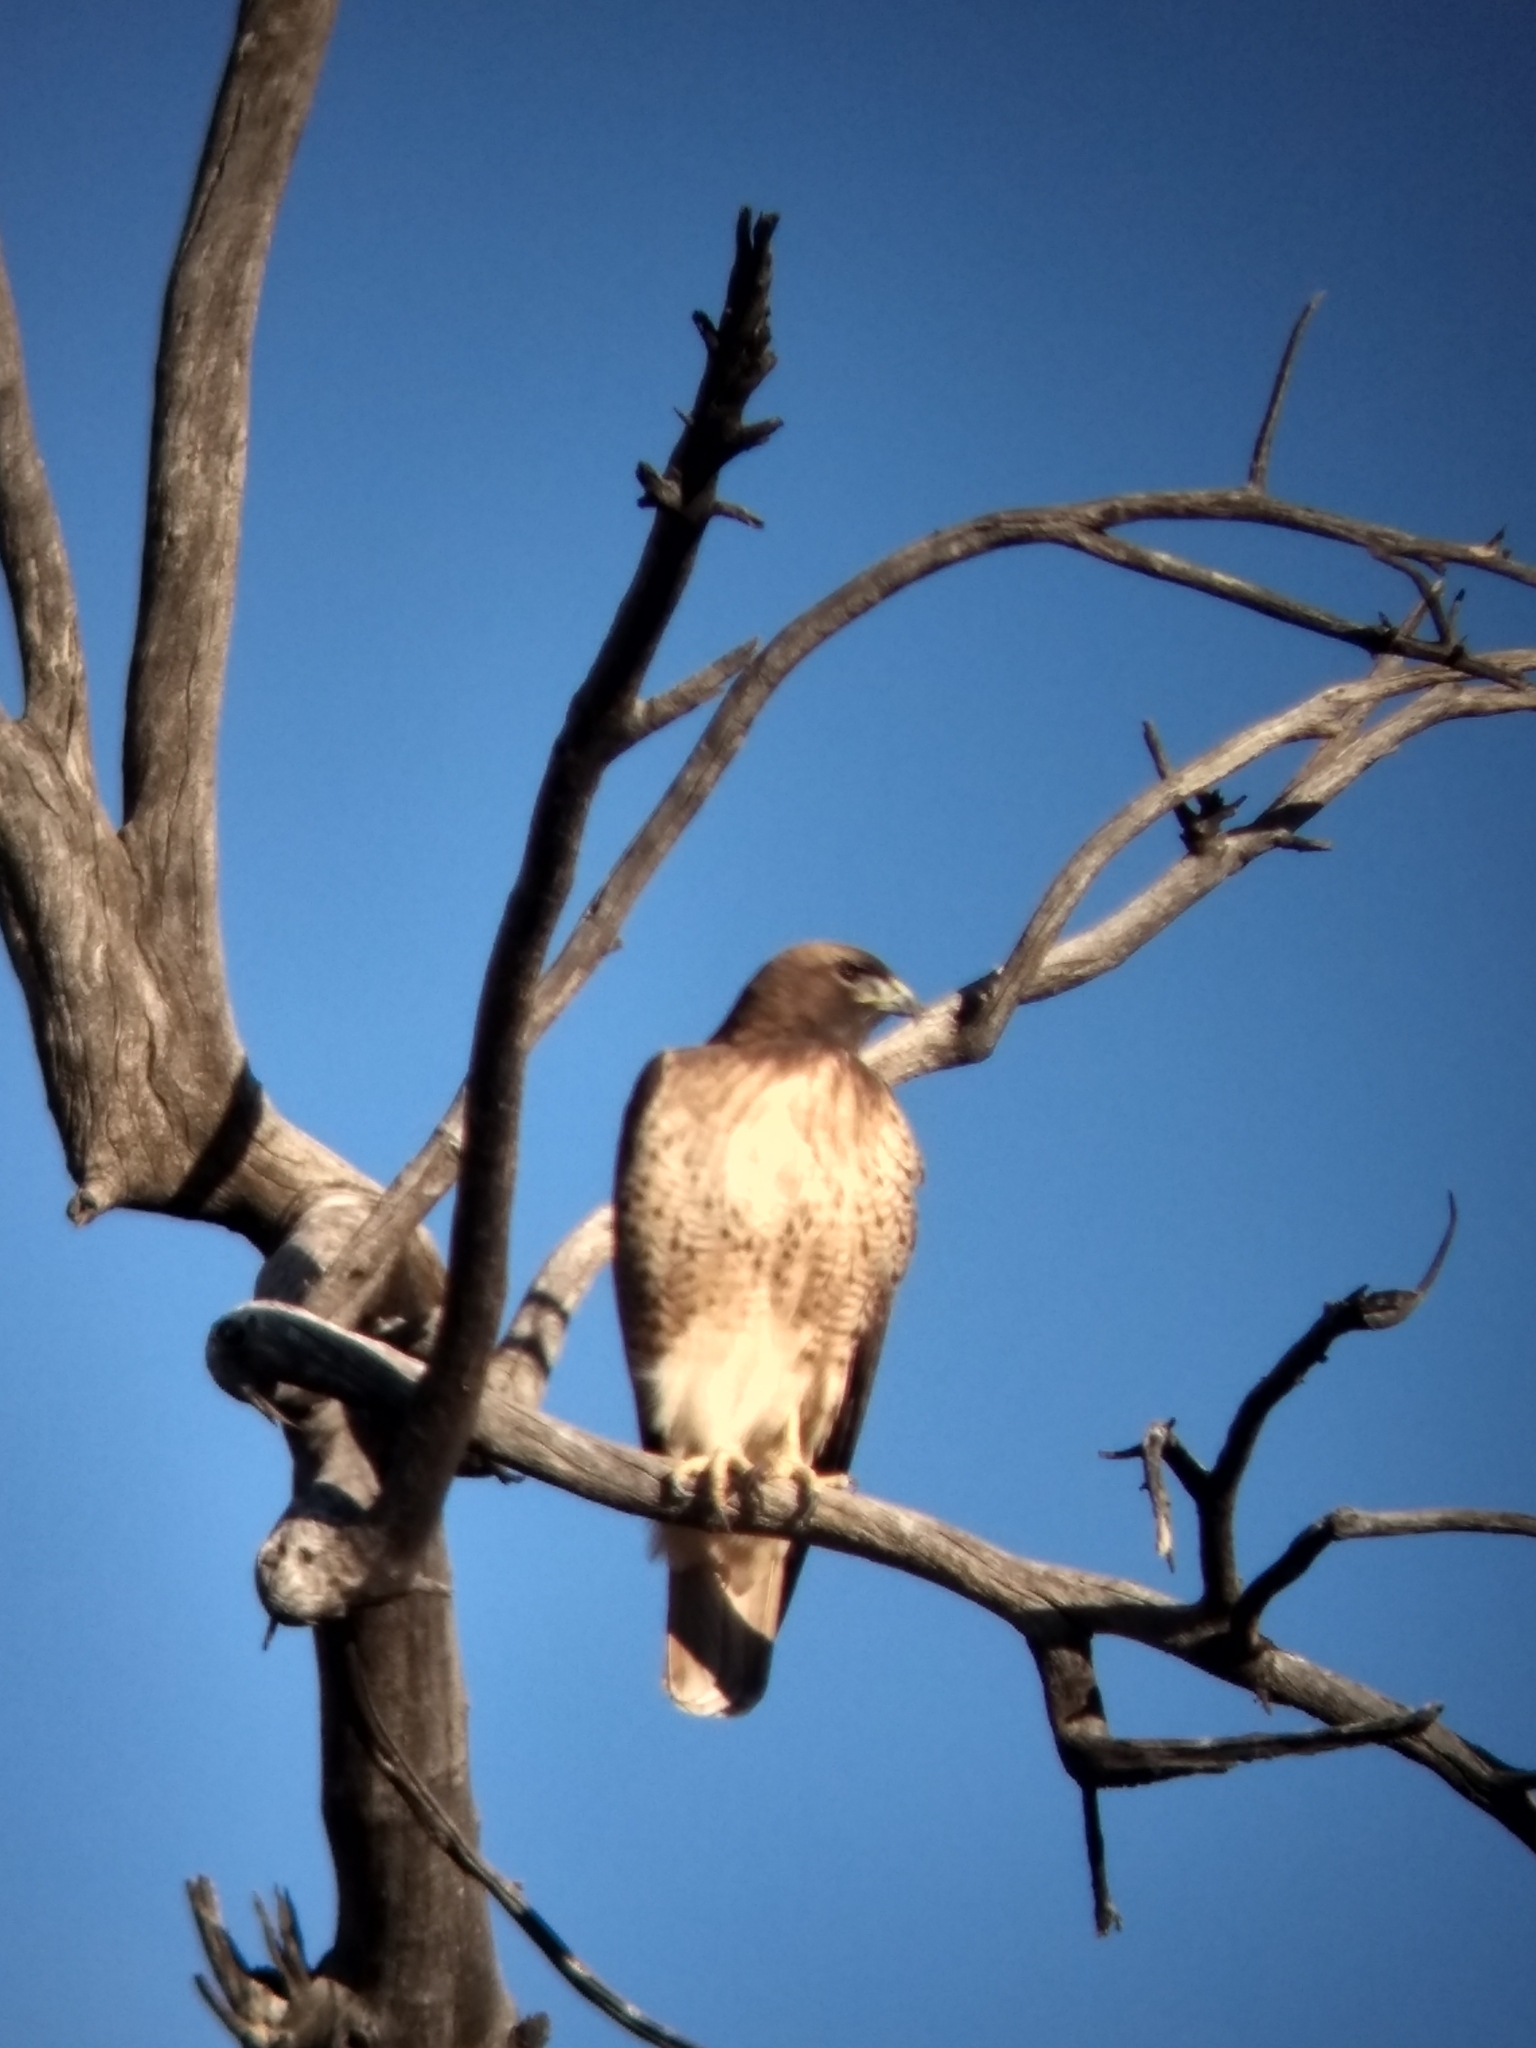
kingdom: Animalia
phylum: Chordata
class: Aves
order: Accipitriformes
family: Accipitridae
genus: Buteo
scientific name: Buteo jamaicensis
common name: Red-tailed hawk
